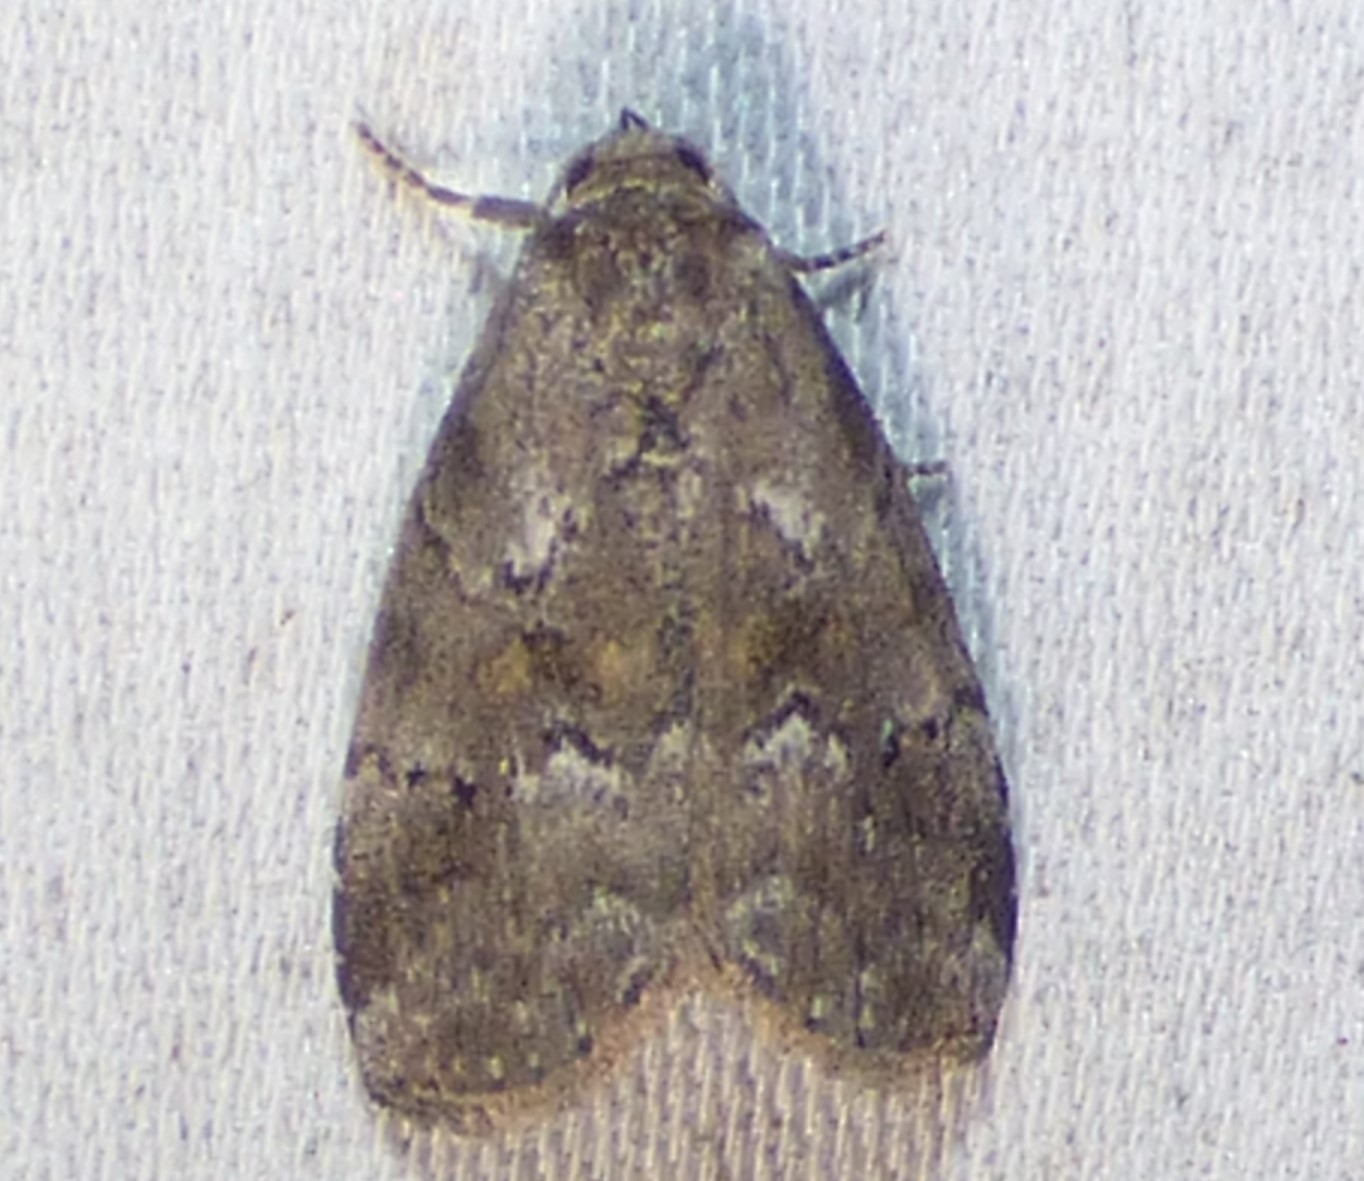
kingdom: Animalia
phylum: Arthropoda
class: Insecta
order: Lepidoptera
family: Erebidae
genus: Hyperstrotia
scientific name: Hyperstrotia nana
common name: White-lined graylet
